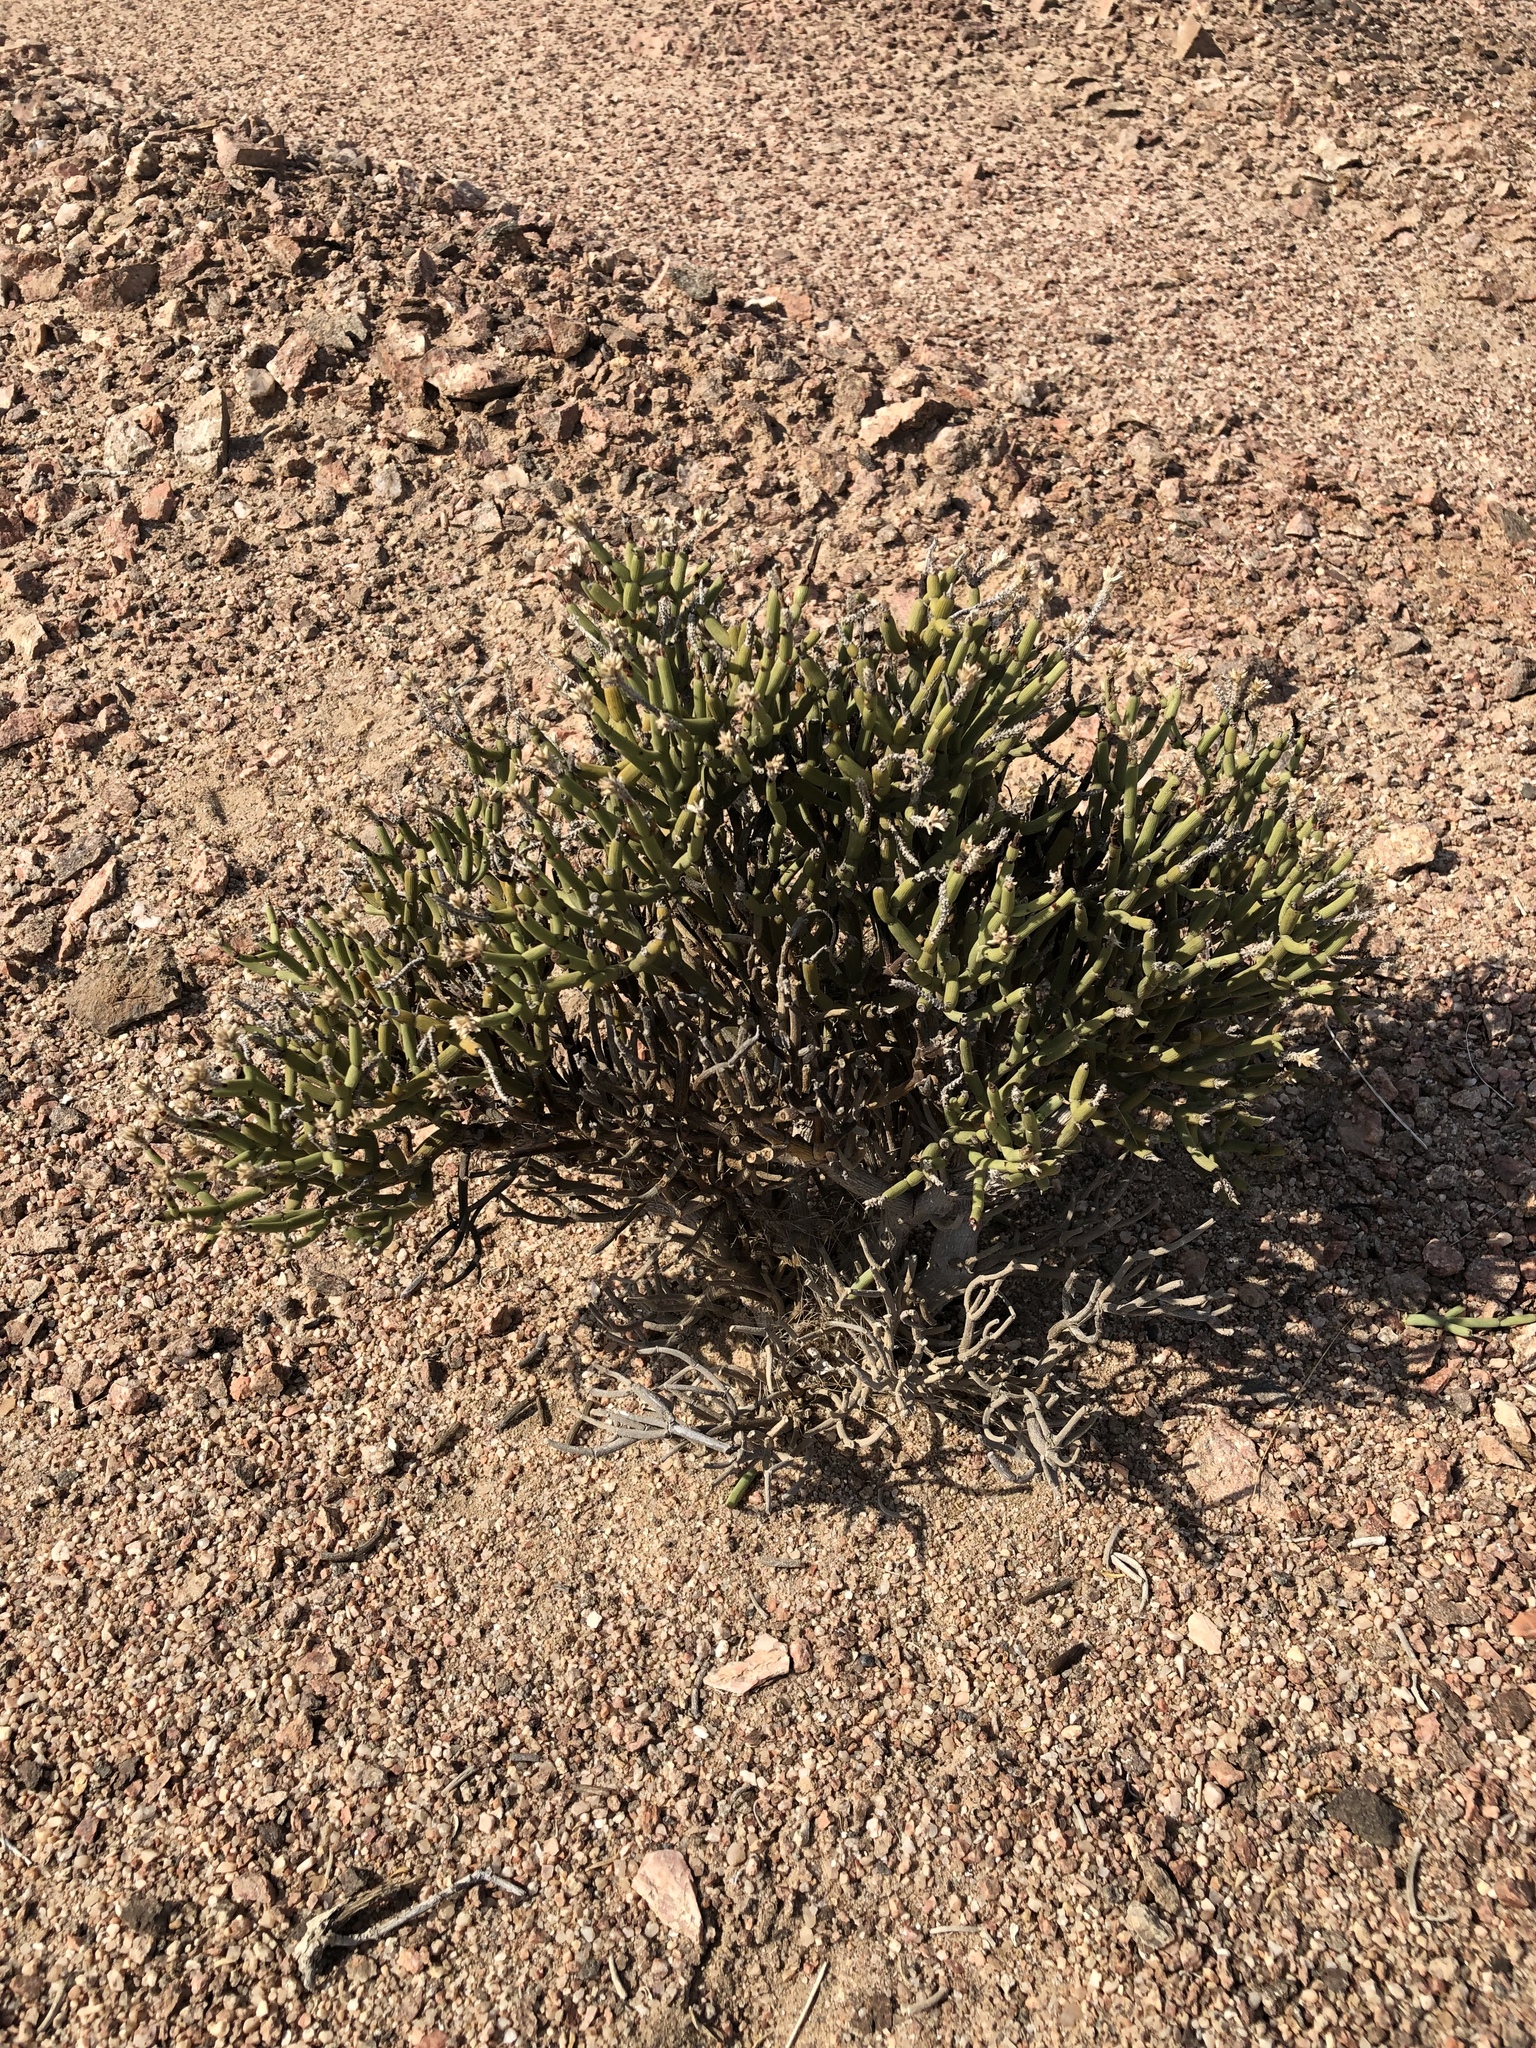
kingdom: Plantae
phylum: Tracheophyta
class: Magnoliopsida
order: Caryophyllales
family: Amaranthaceae
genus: Arthraerva
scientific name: Arthraerva leubnitziae
